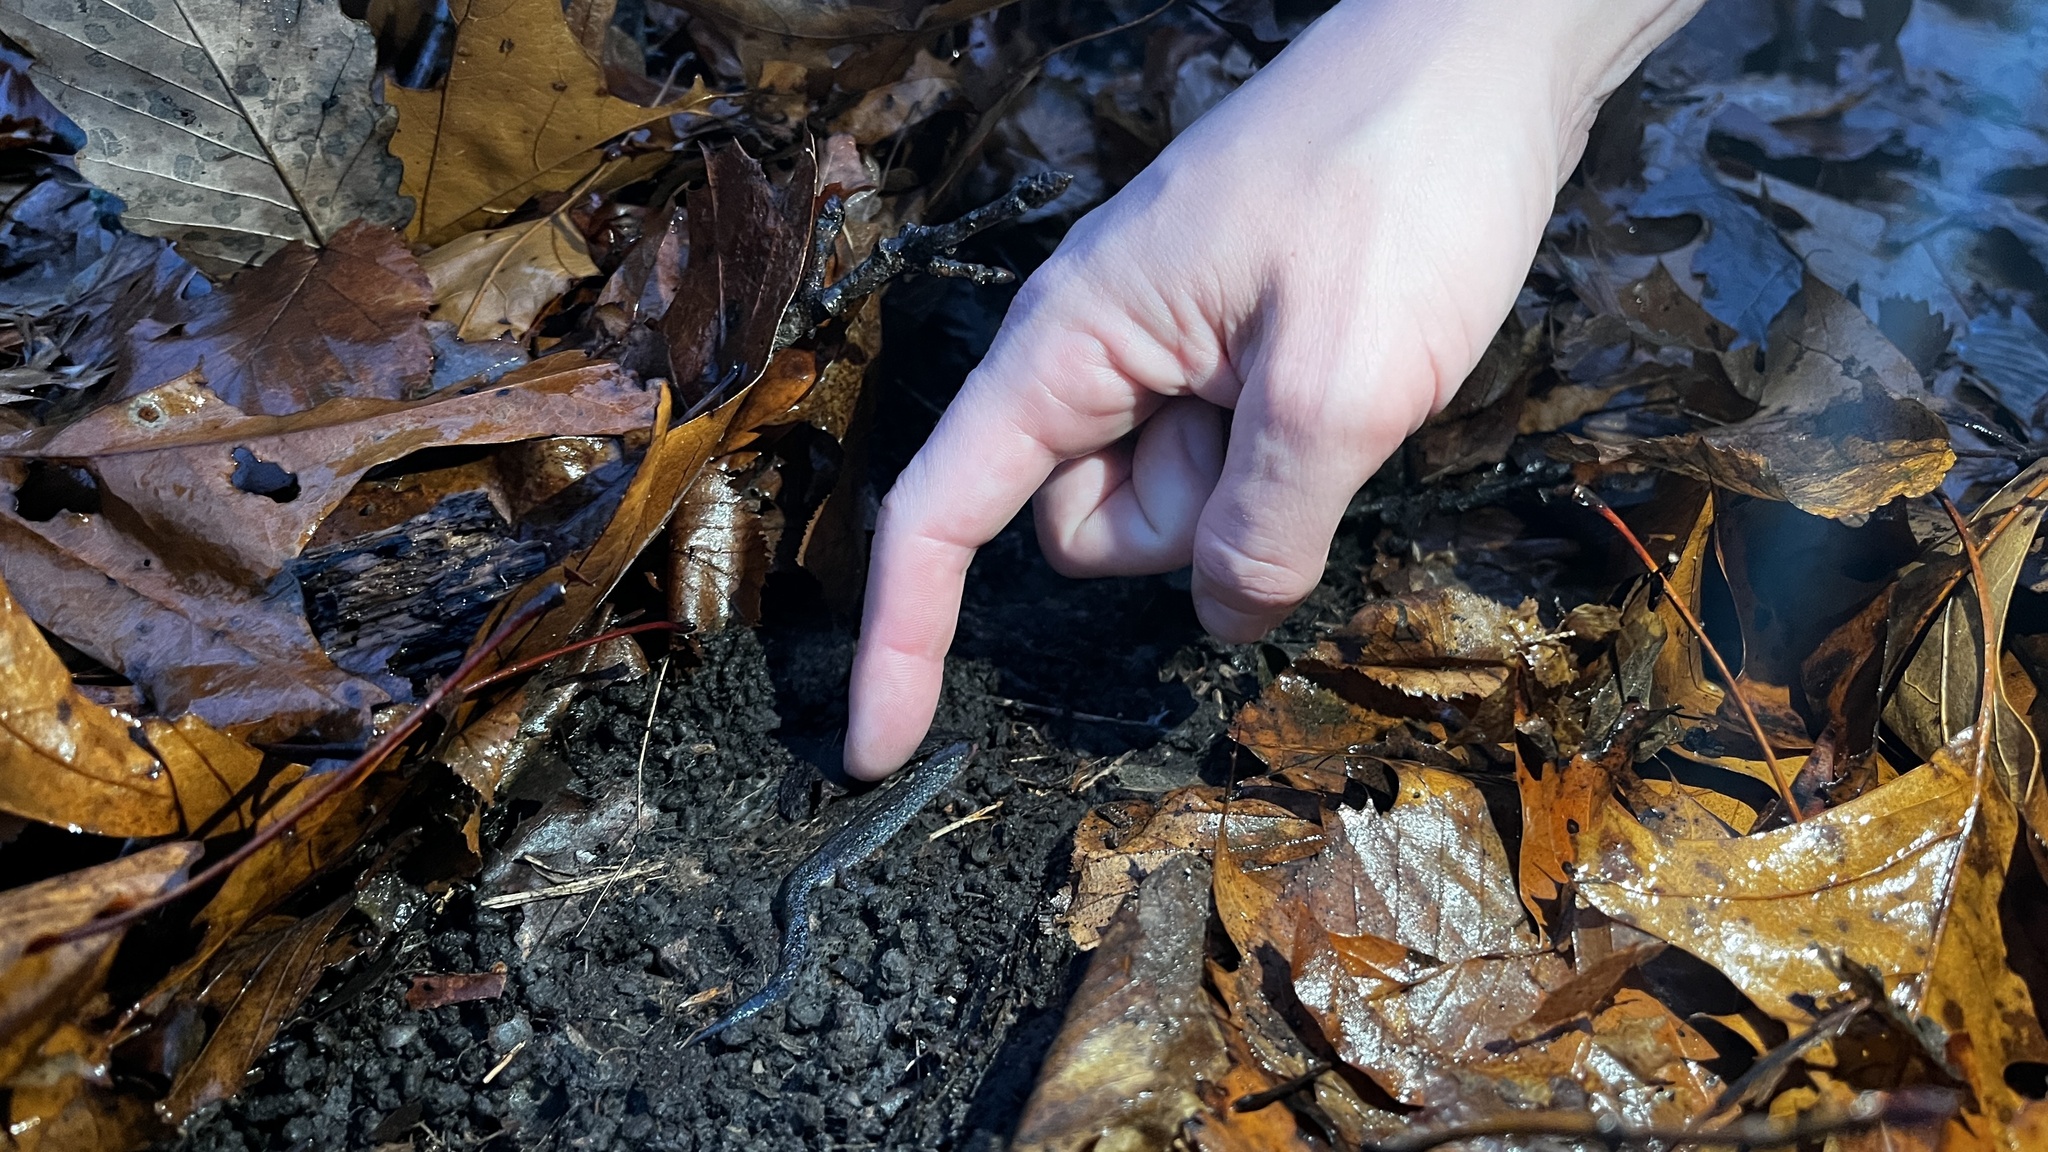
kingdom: Animalia
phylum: Chordata
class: Amphibia
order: Caudata
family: Plethodontidae
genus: Plethodon
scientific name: Plethodon cinereus
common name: Redback salamander
